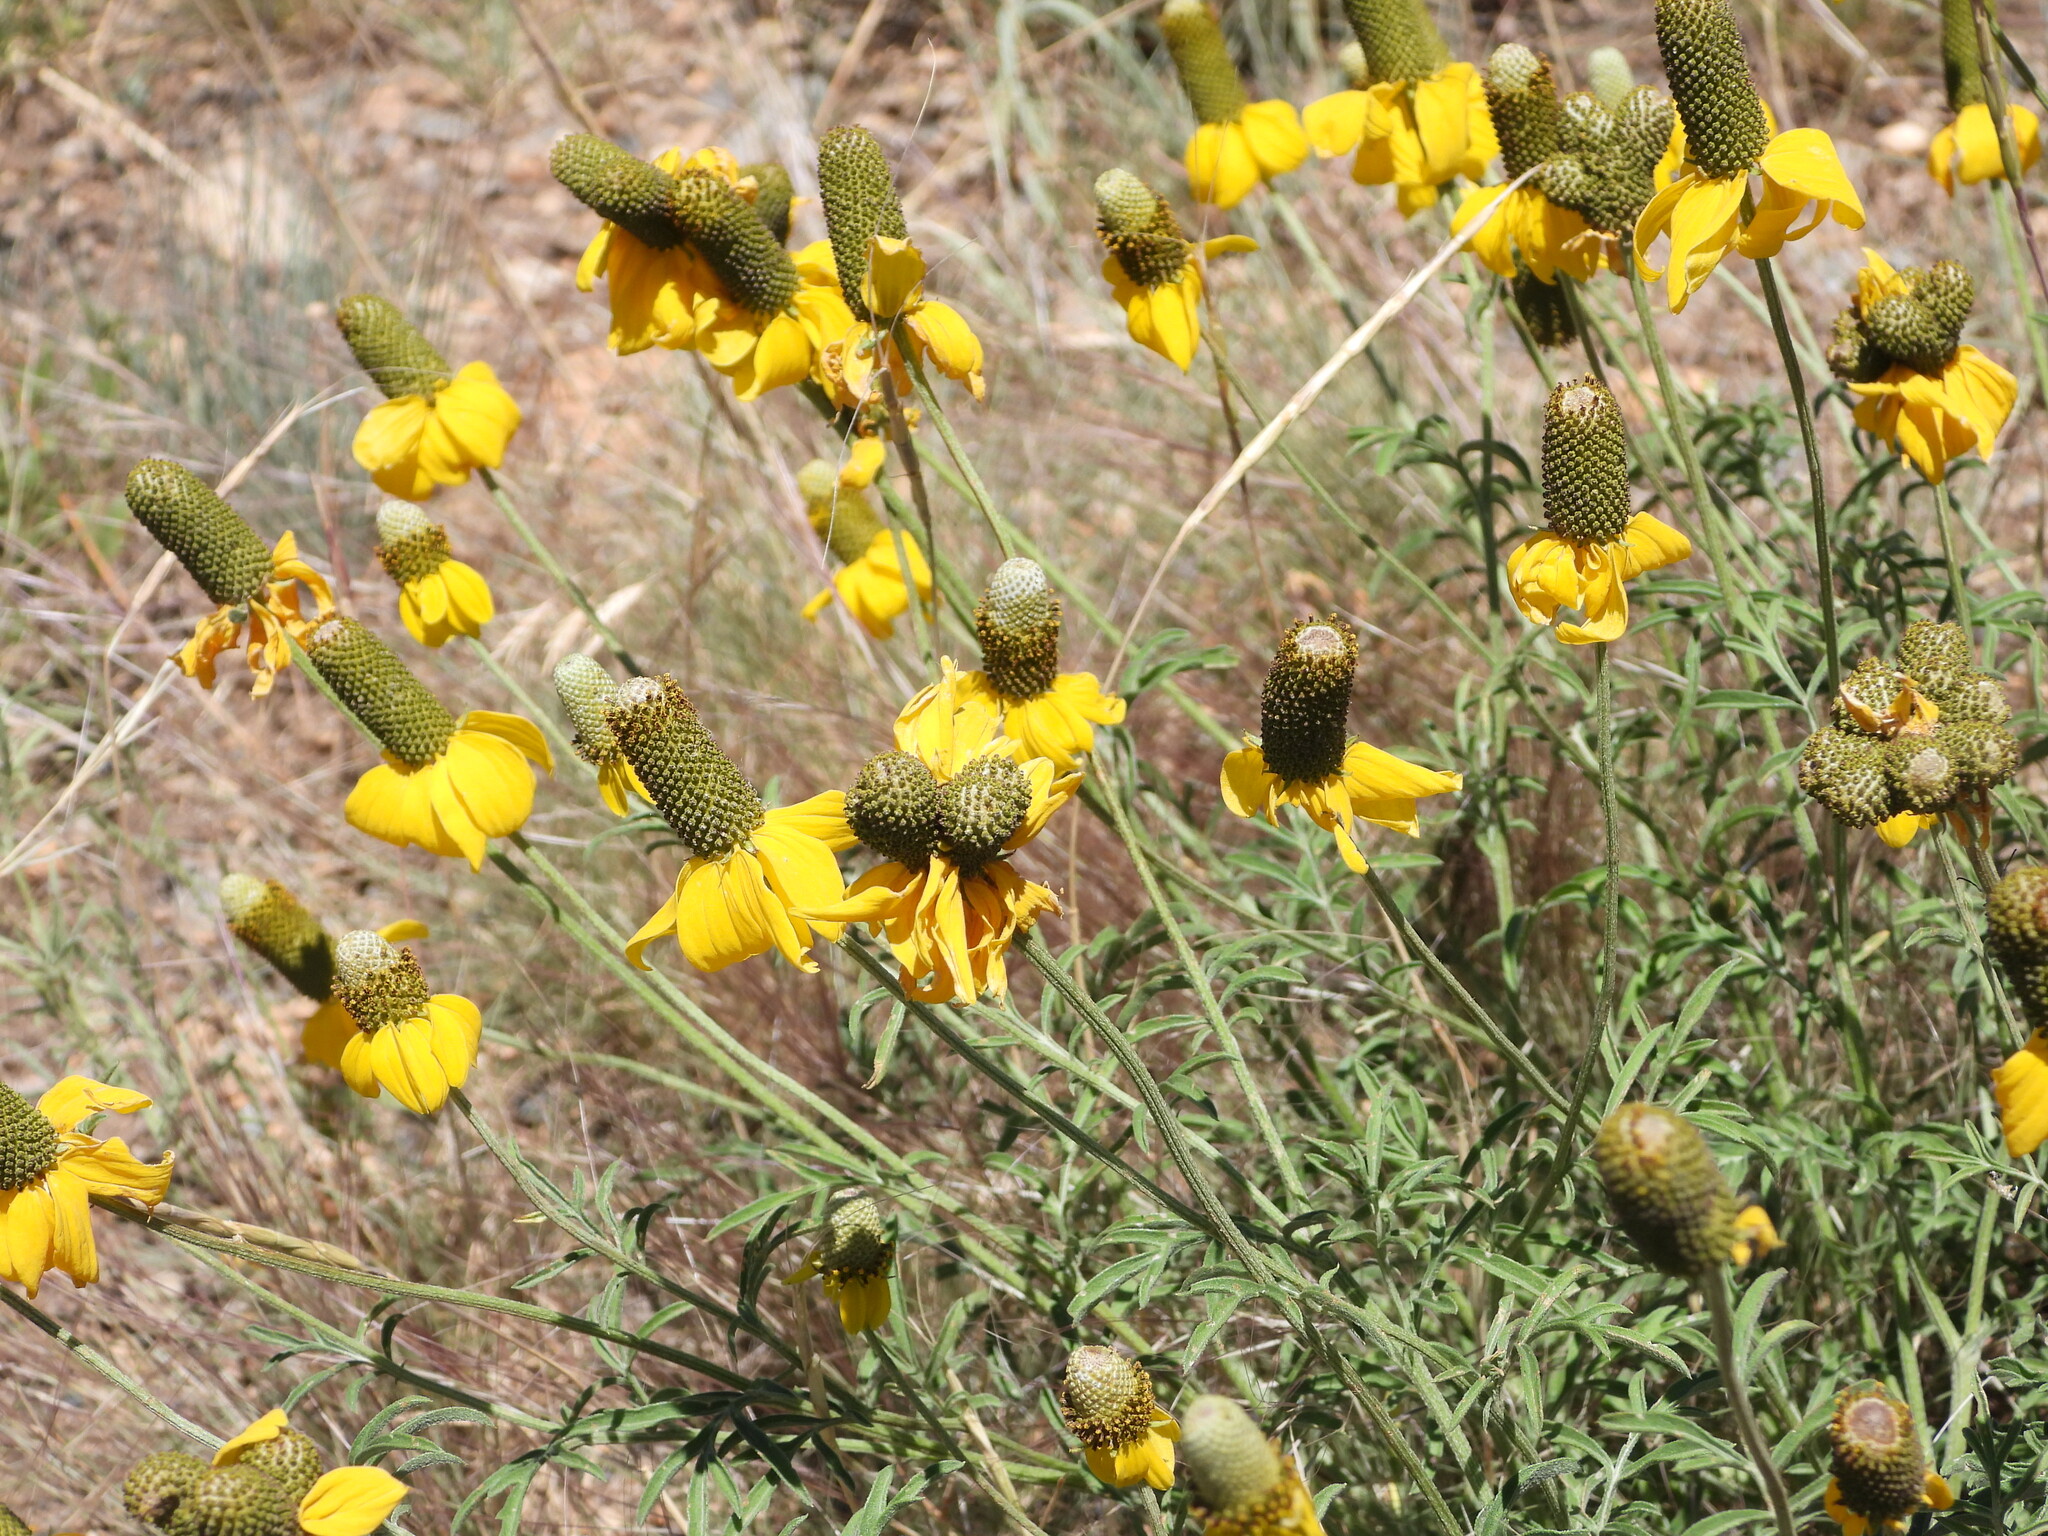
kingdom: Plantae
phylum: Tracheophyta
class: Magnoliopsida
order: Asterales
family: Asteraceae
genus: Ratibida
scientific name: Ratibida columnifera
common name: Prairie coneflower
